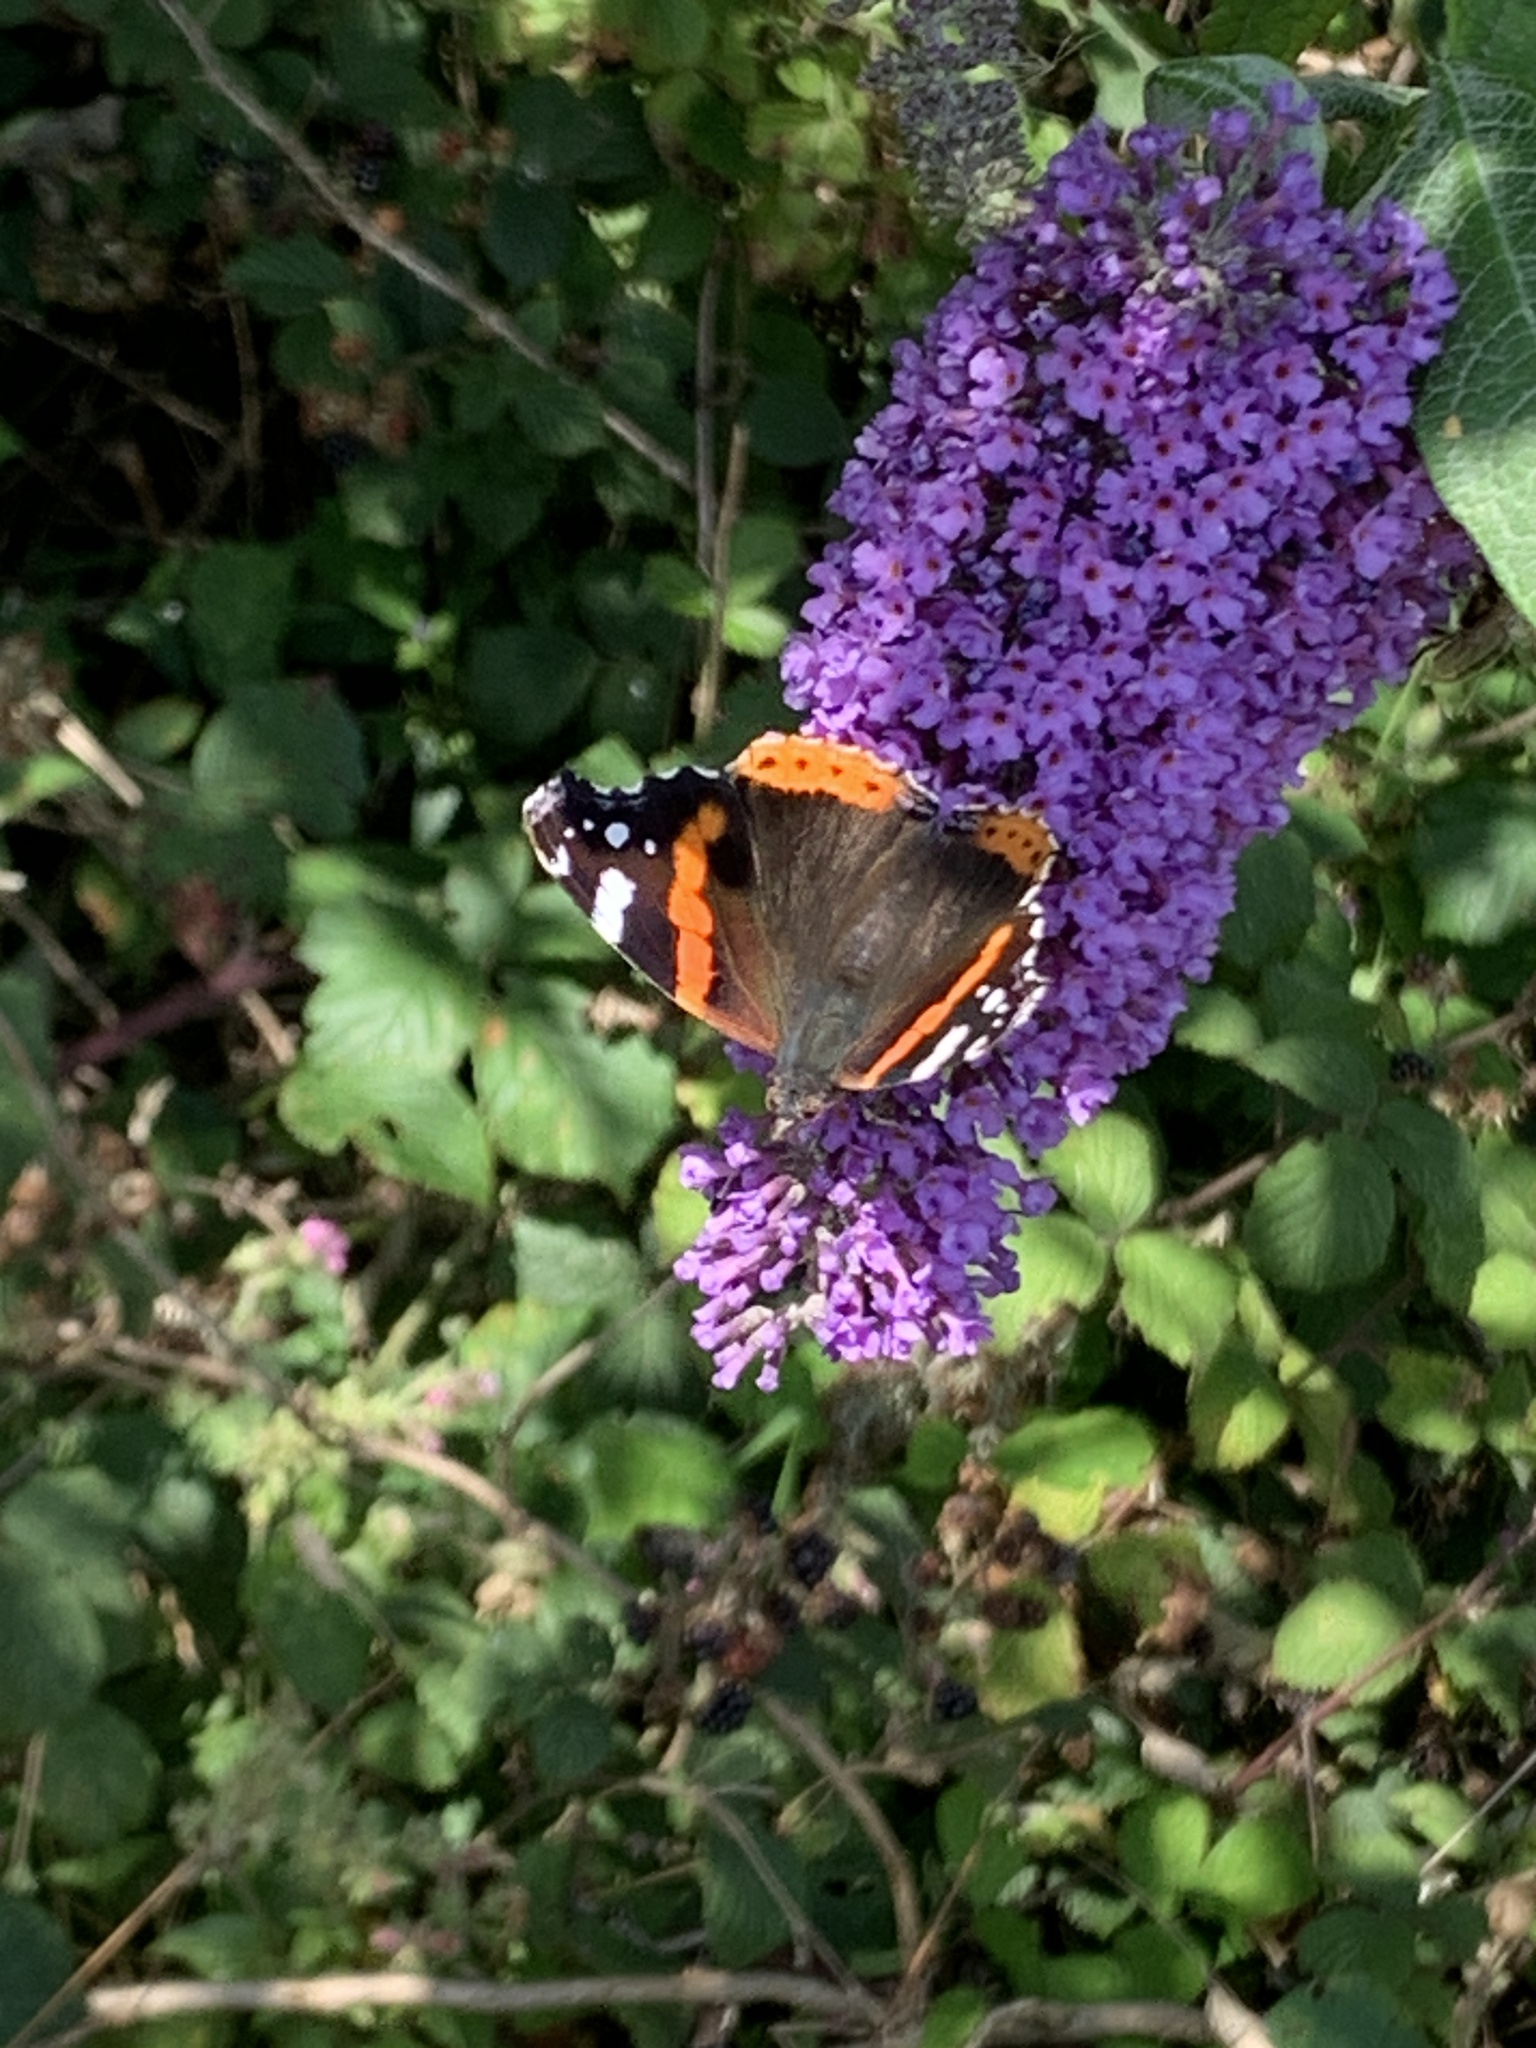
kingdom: Animalia
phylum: Arthropoda
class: Insecta
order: Lepidoptera
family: Nymphalidae
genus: Vanessa
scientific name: Vanessa atalanta
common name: Red admiral
